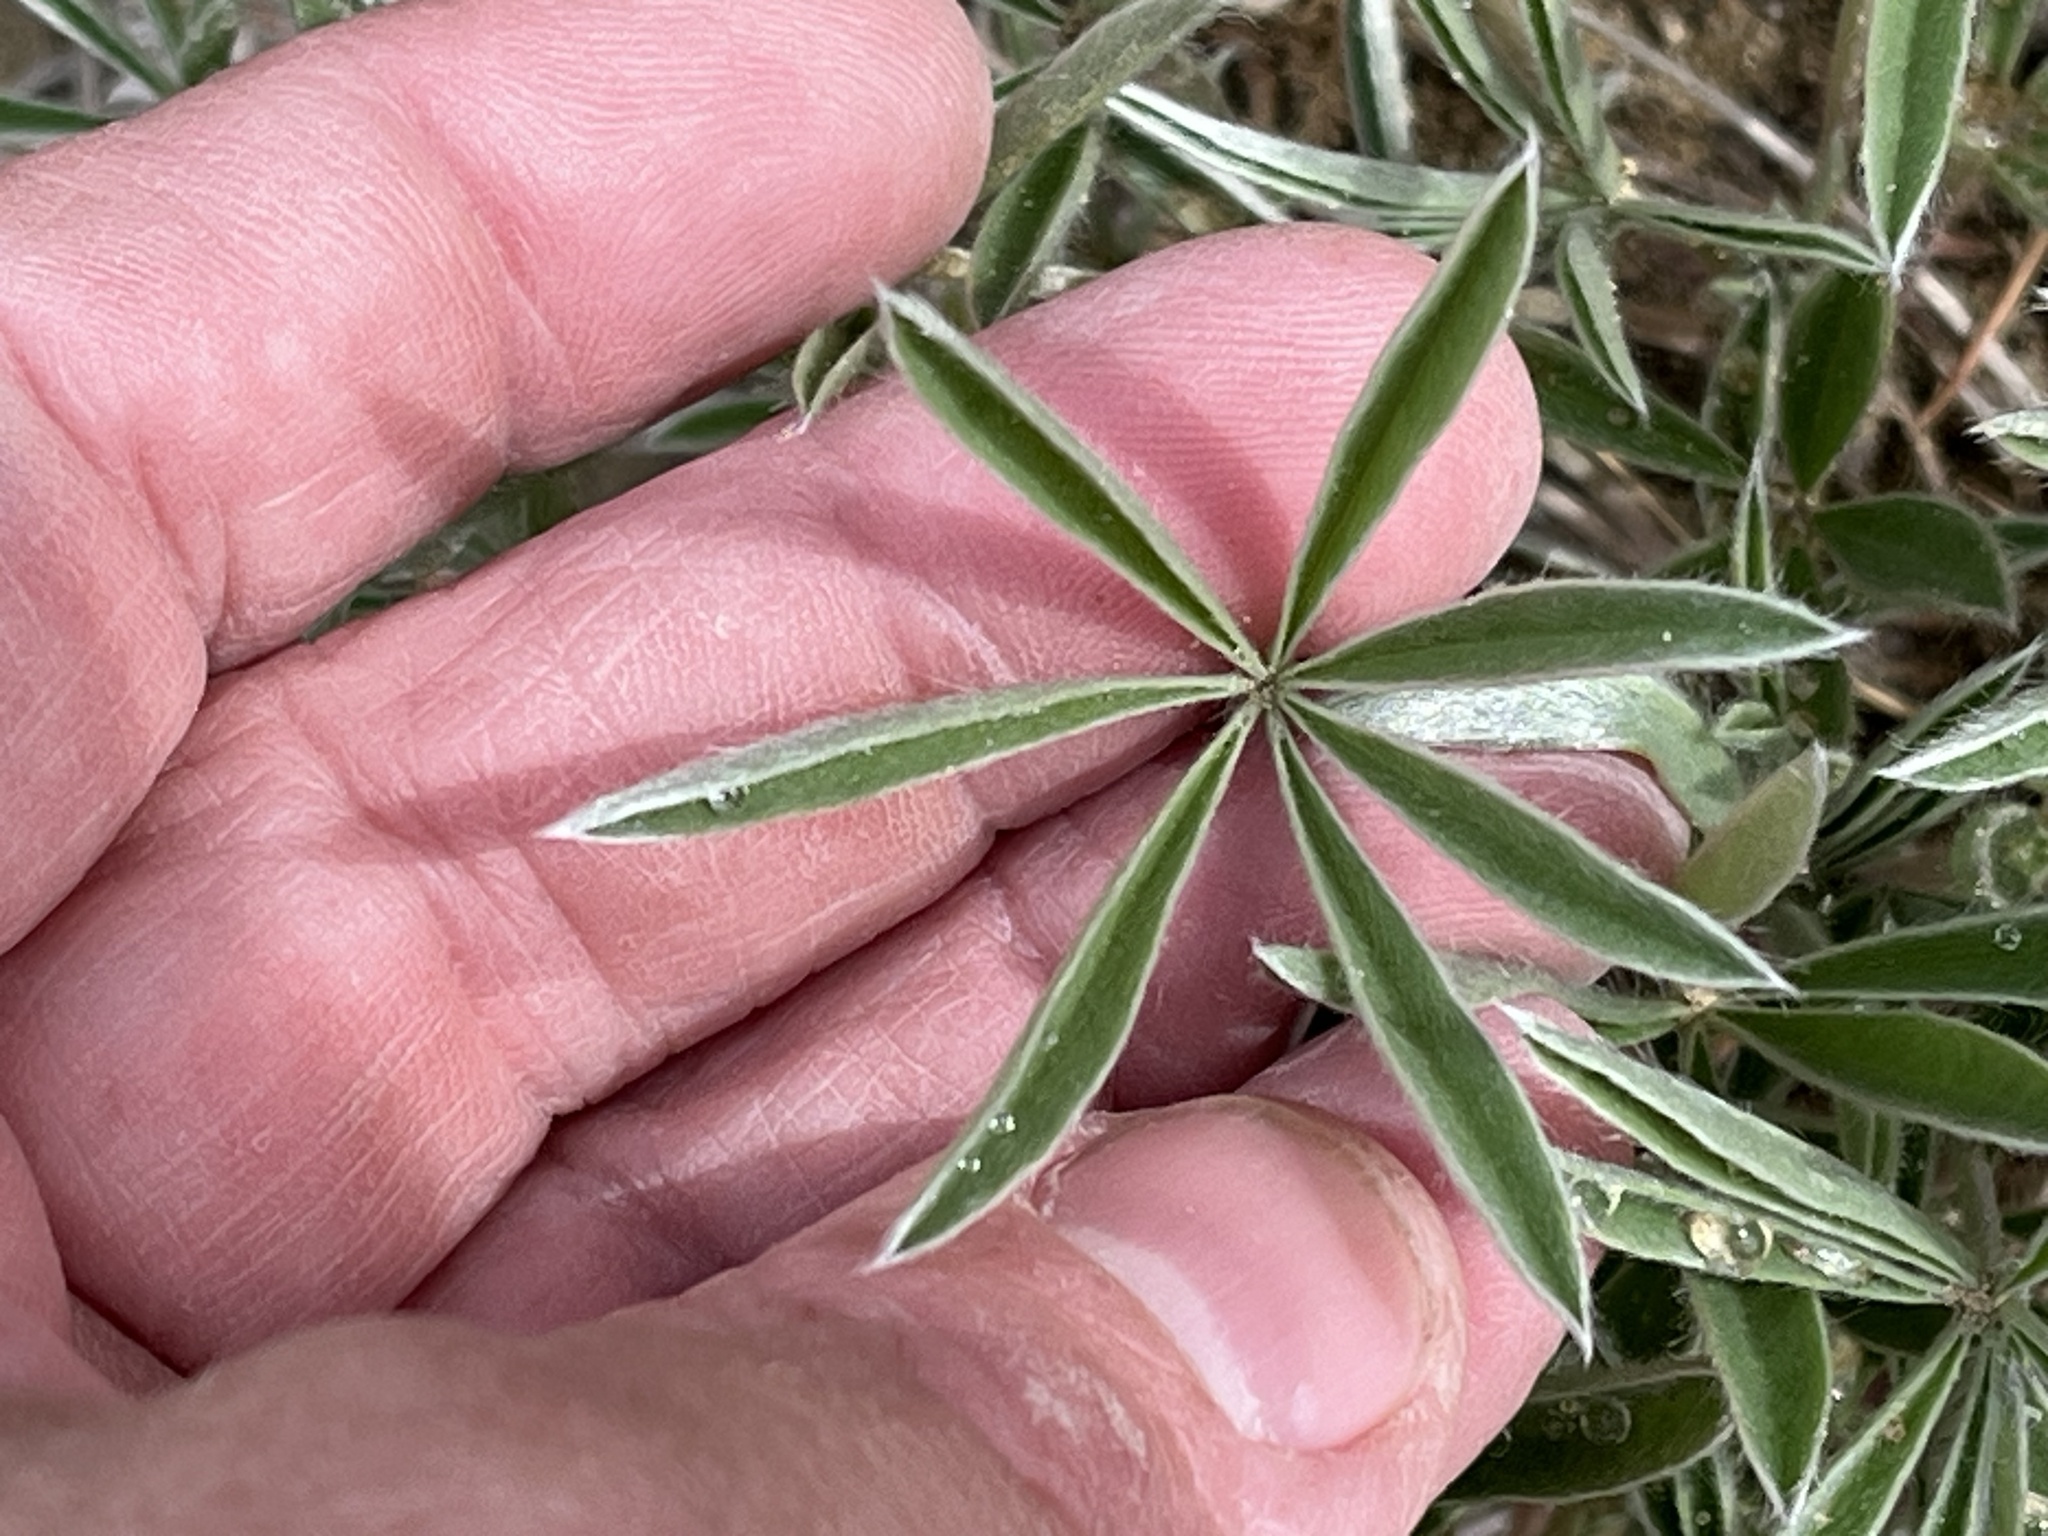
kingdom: Plantae
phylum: Tracheophyta
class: Magnoliopsida
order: Fabales
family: Fabaceae
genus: Lupinus
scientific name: Lupinus kuschei
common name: Kusche's lupine
